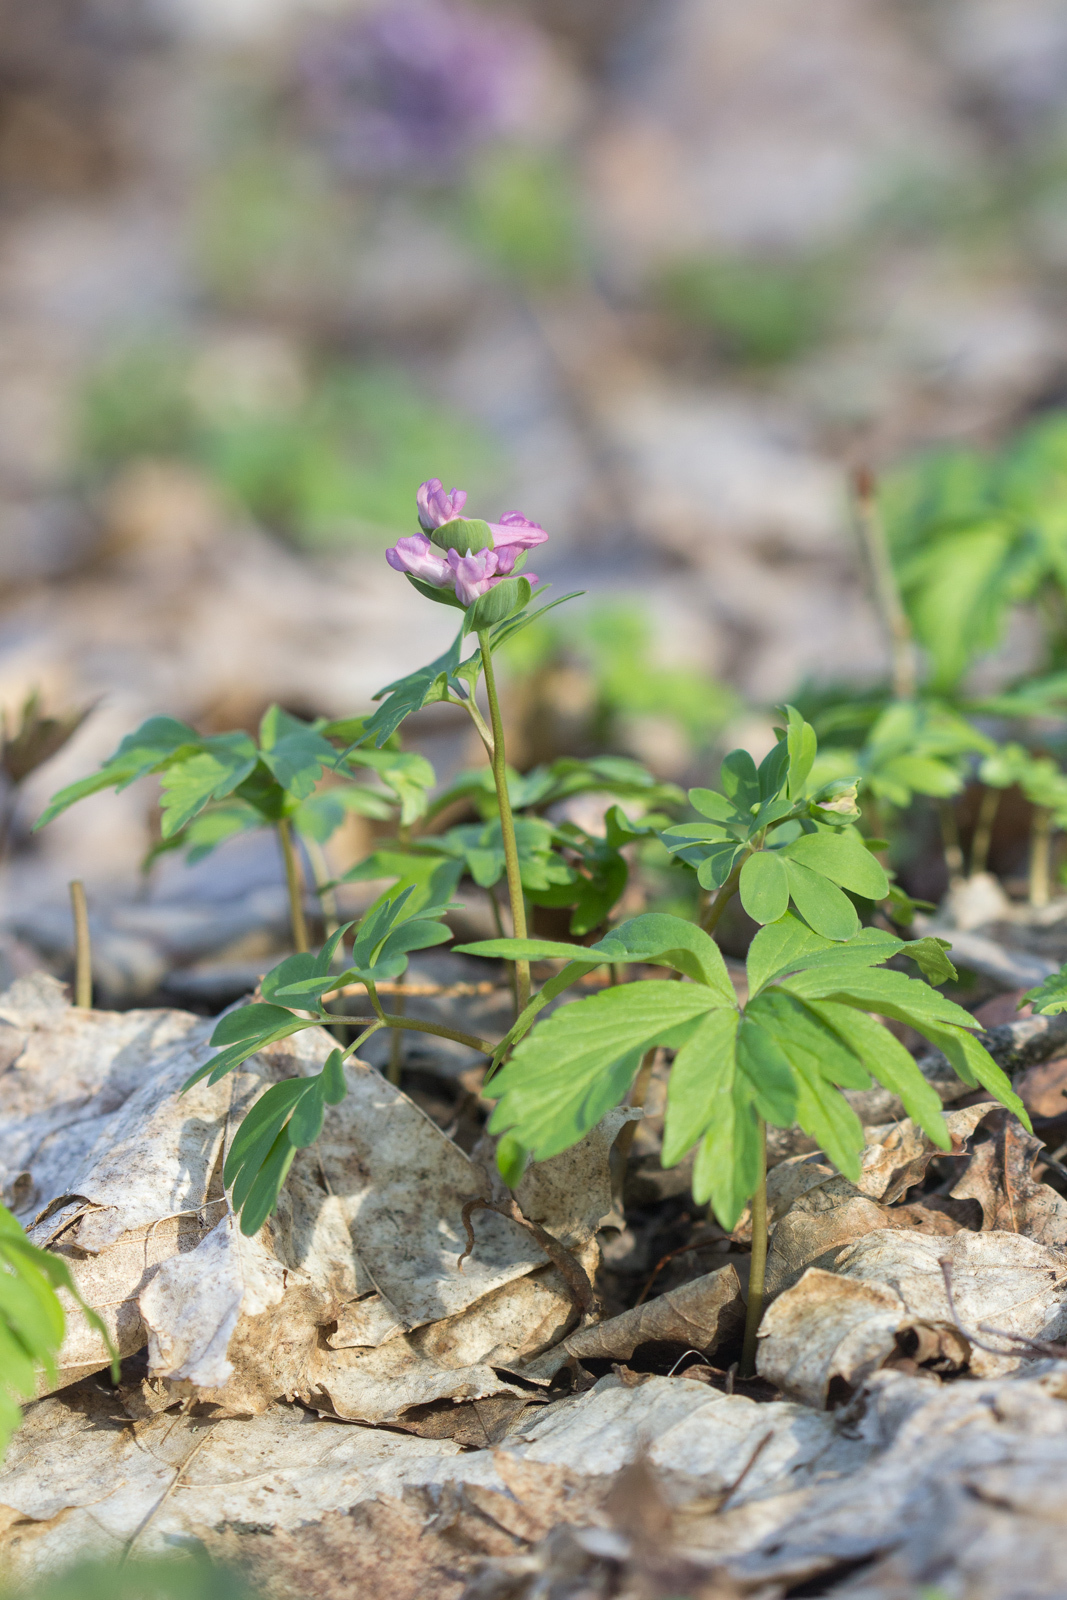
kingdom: Plantae
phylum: Tracheophyta
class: Magnoliopsida
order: Ranunculales
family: Papaveraceae
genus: Corydalis
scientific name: Corydalis intermedia
